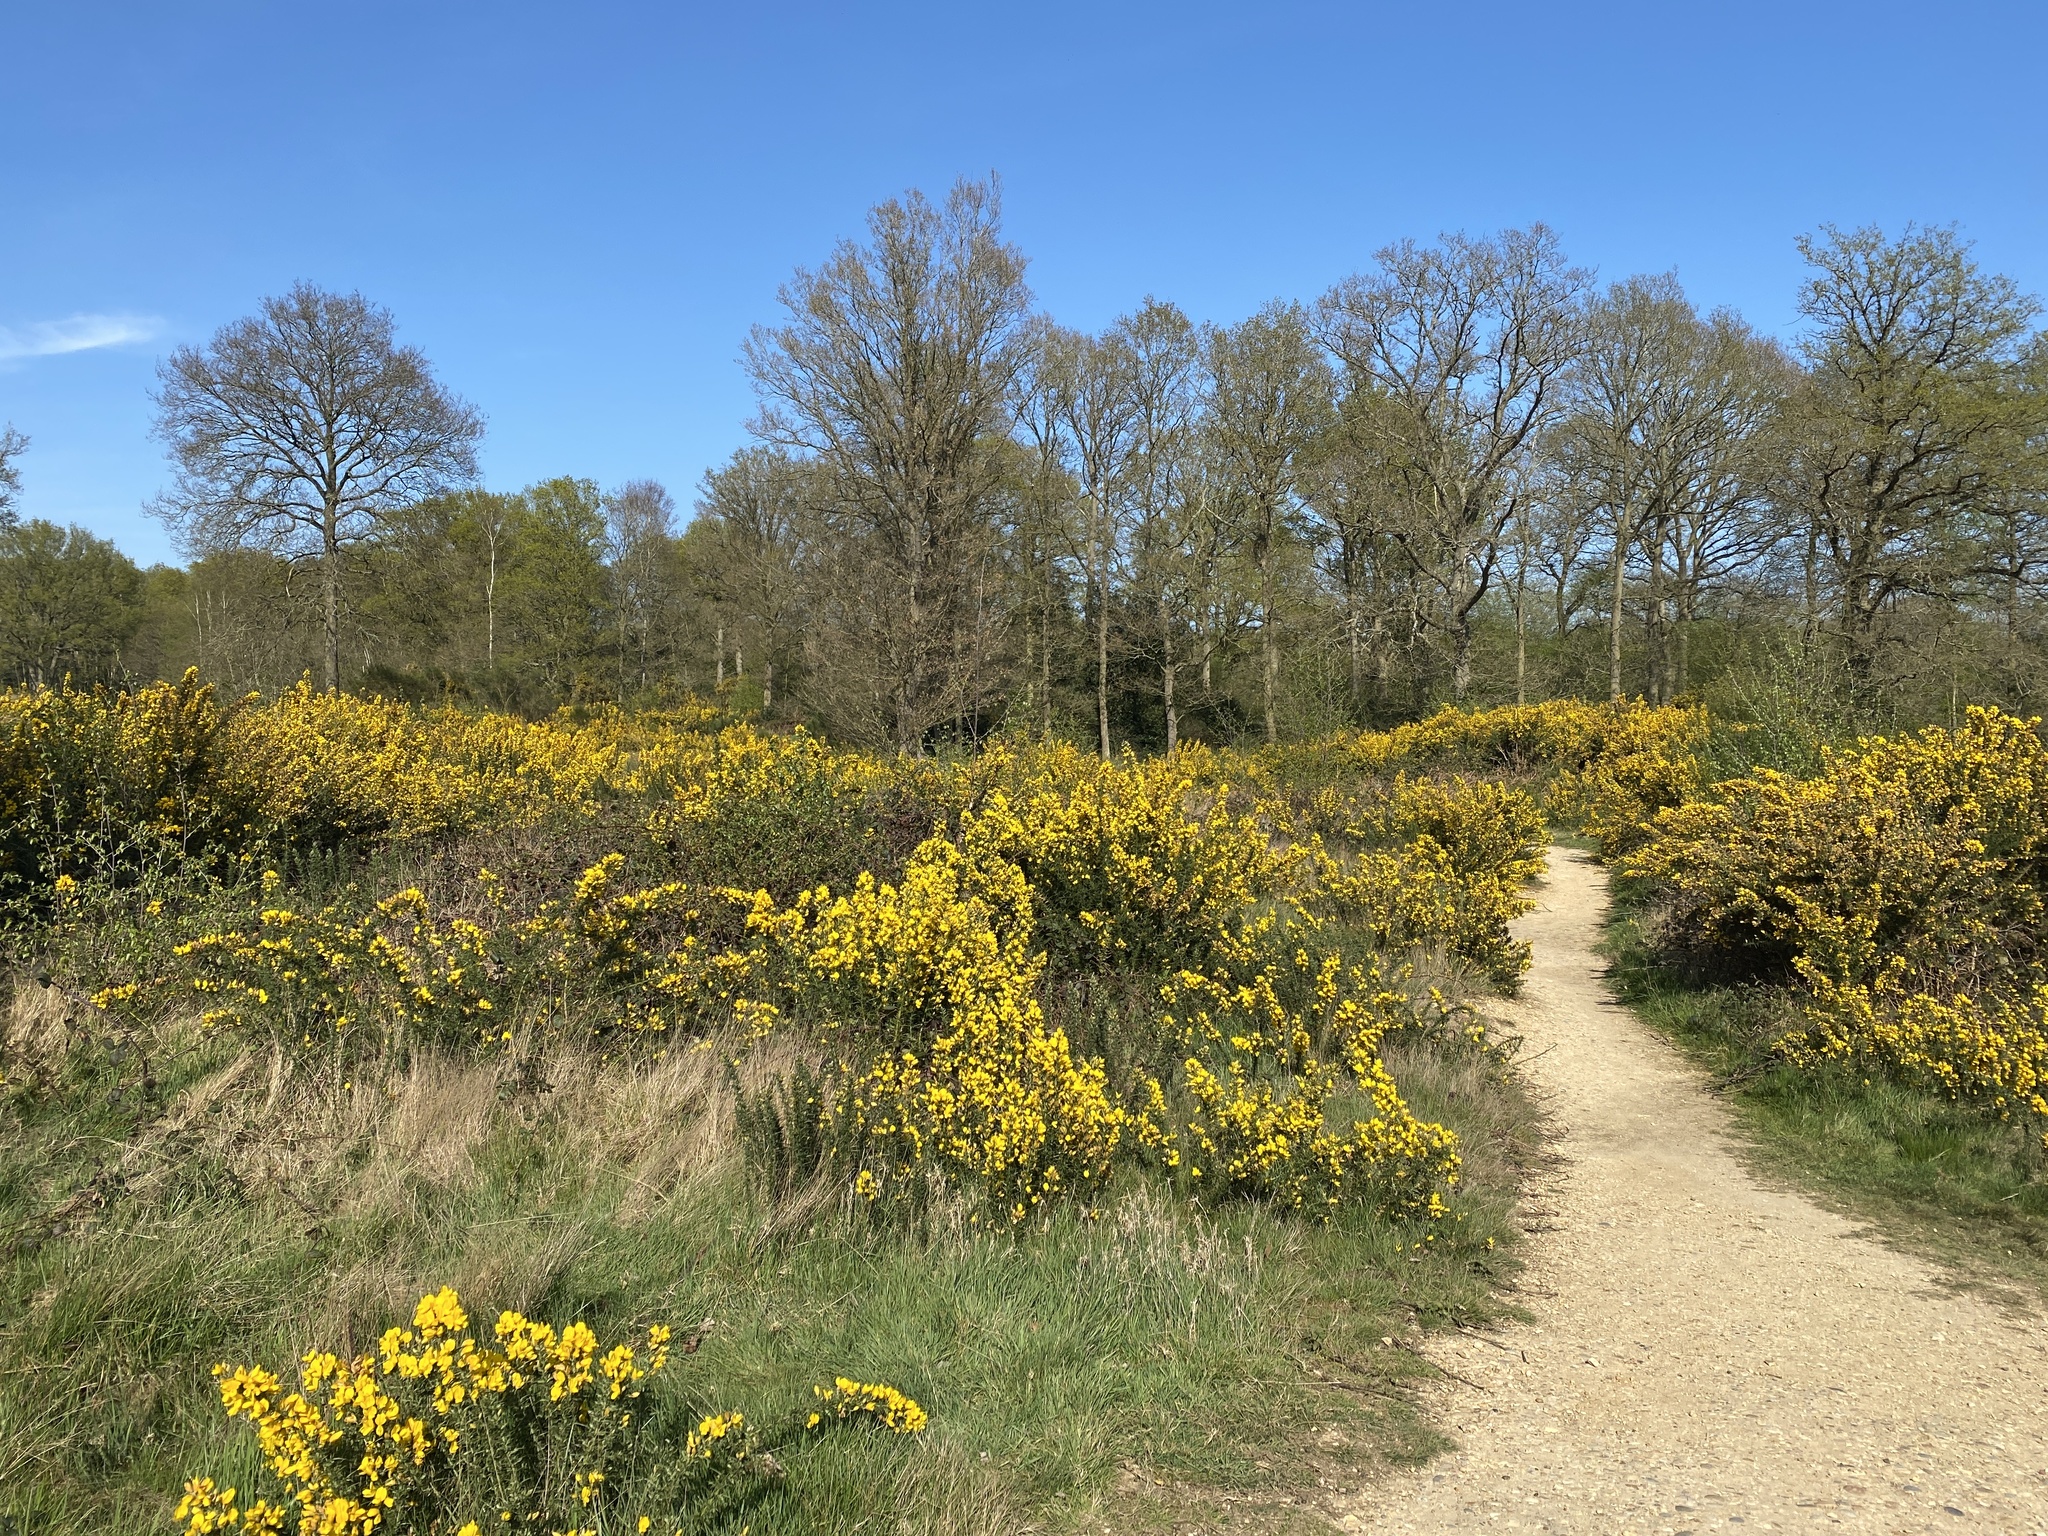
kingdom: Plantae
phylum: Tracheophyta
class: Magnoliopsida
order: Fabales
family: Fabaceae
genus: Ulex
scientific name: Ulex europaeus
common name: Common gorse
